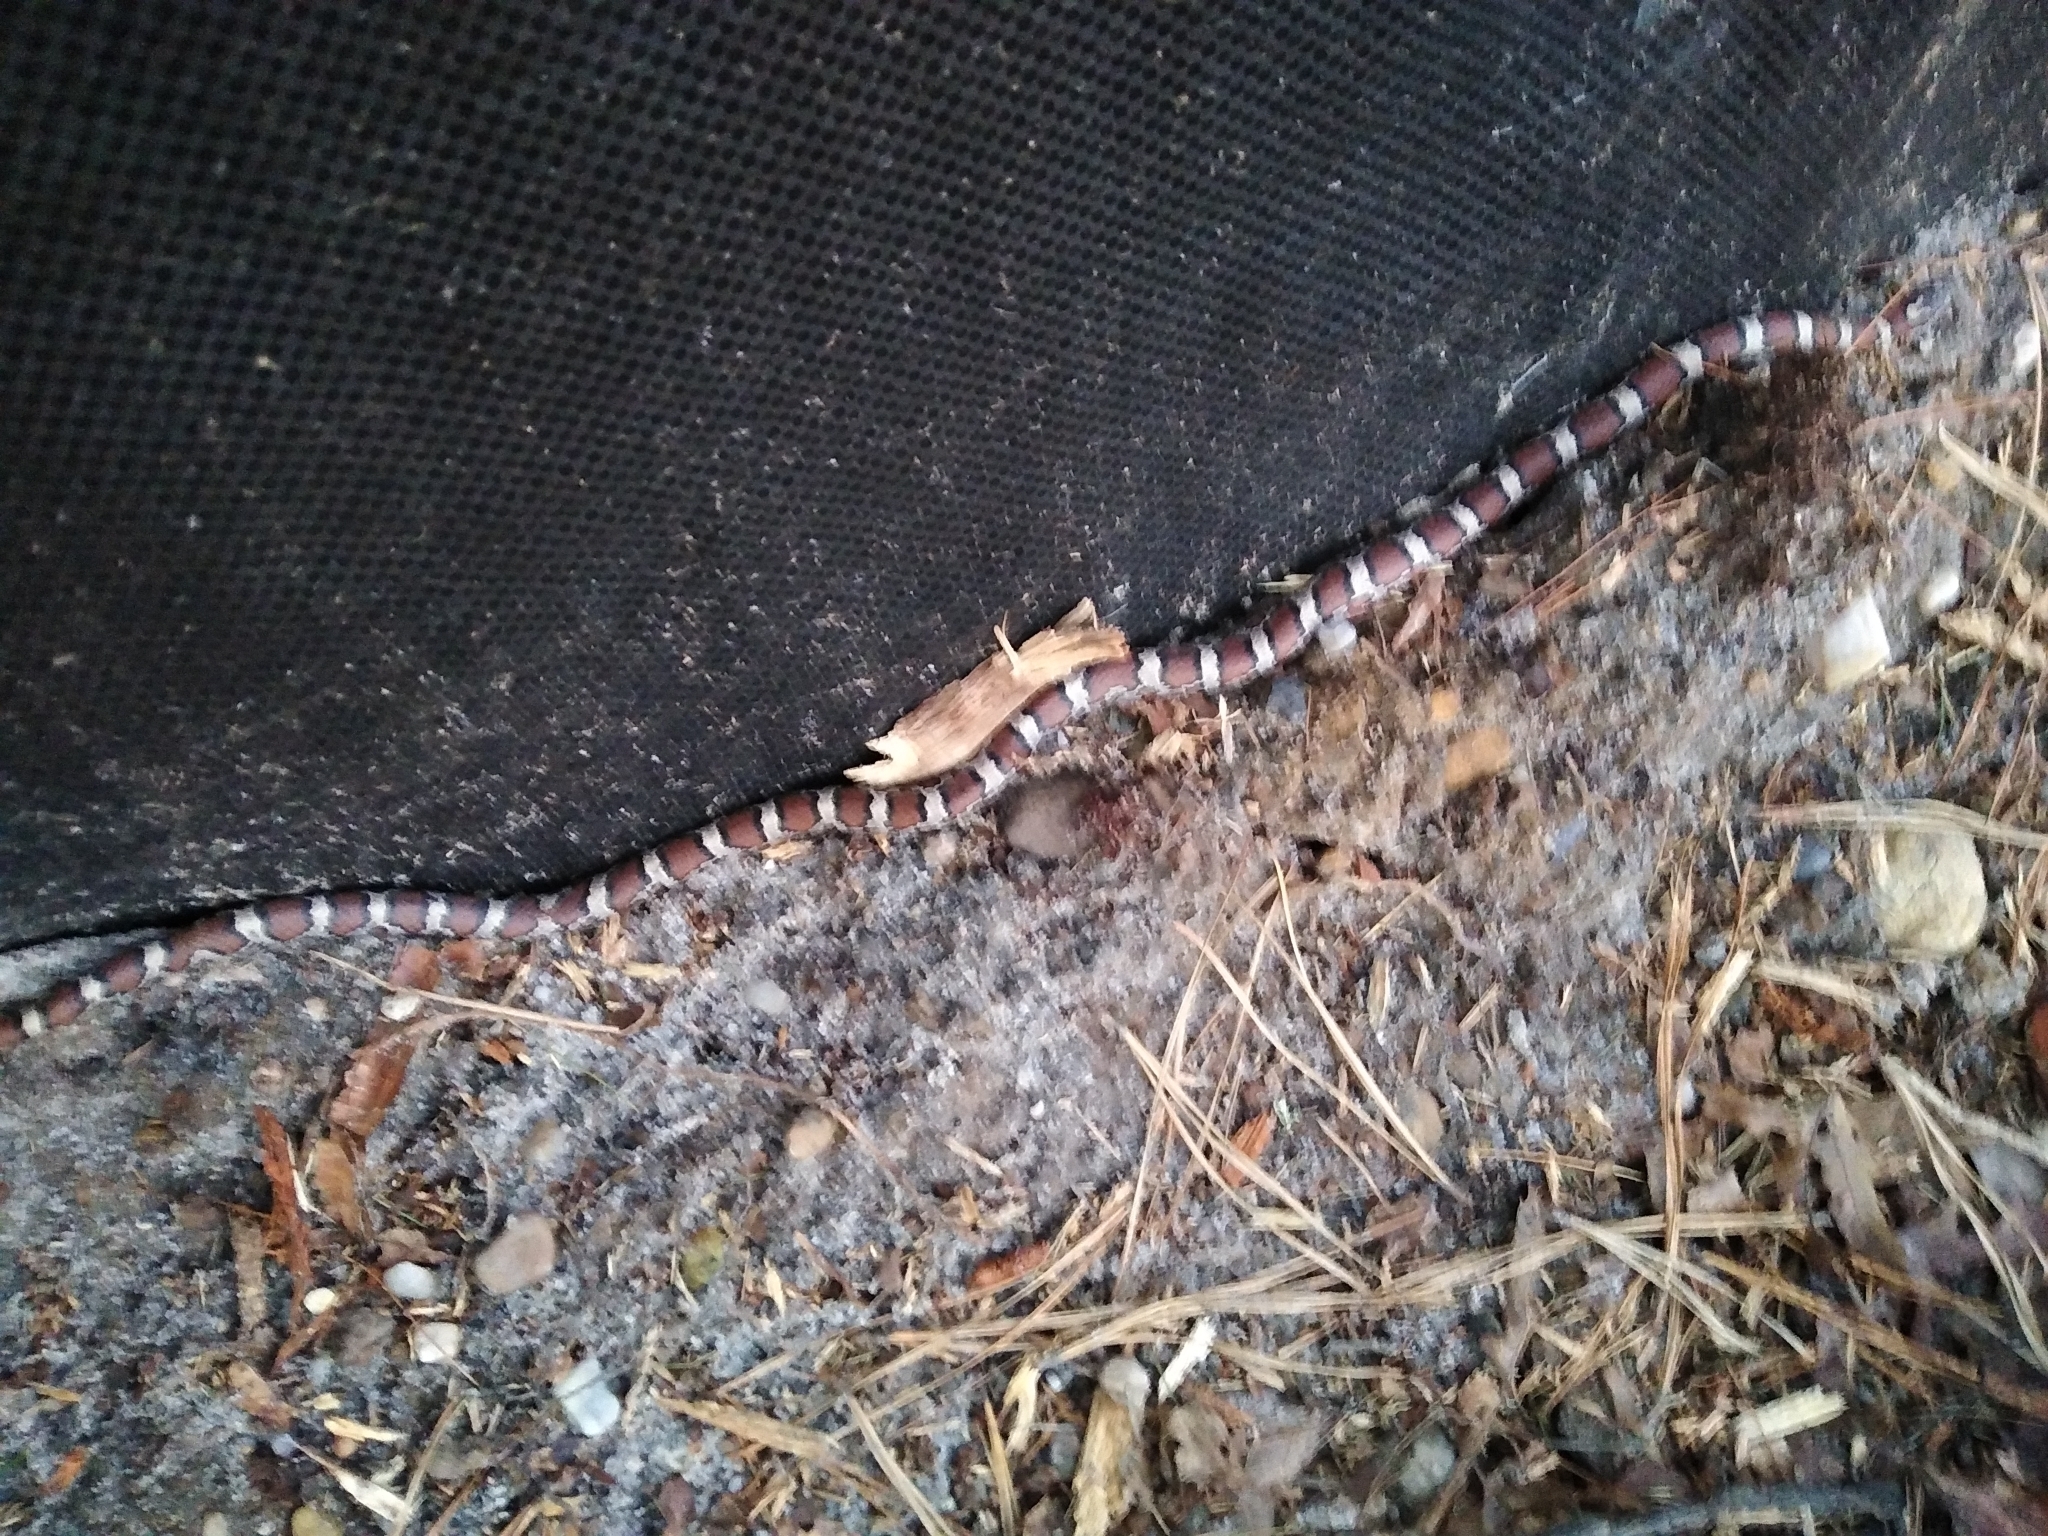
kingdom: Animalia
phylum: Chordata
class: Squamata
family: Colubridae
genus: Lampropeltis
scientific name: Lampropeltis triangulum
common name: Eastern milksnake
